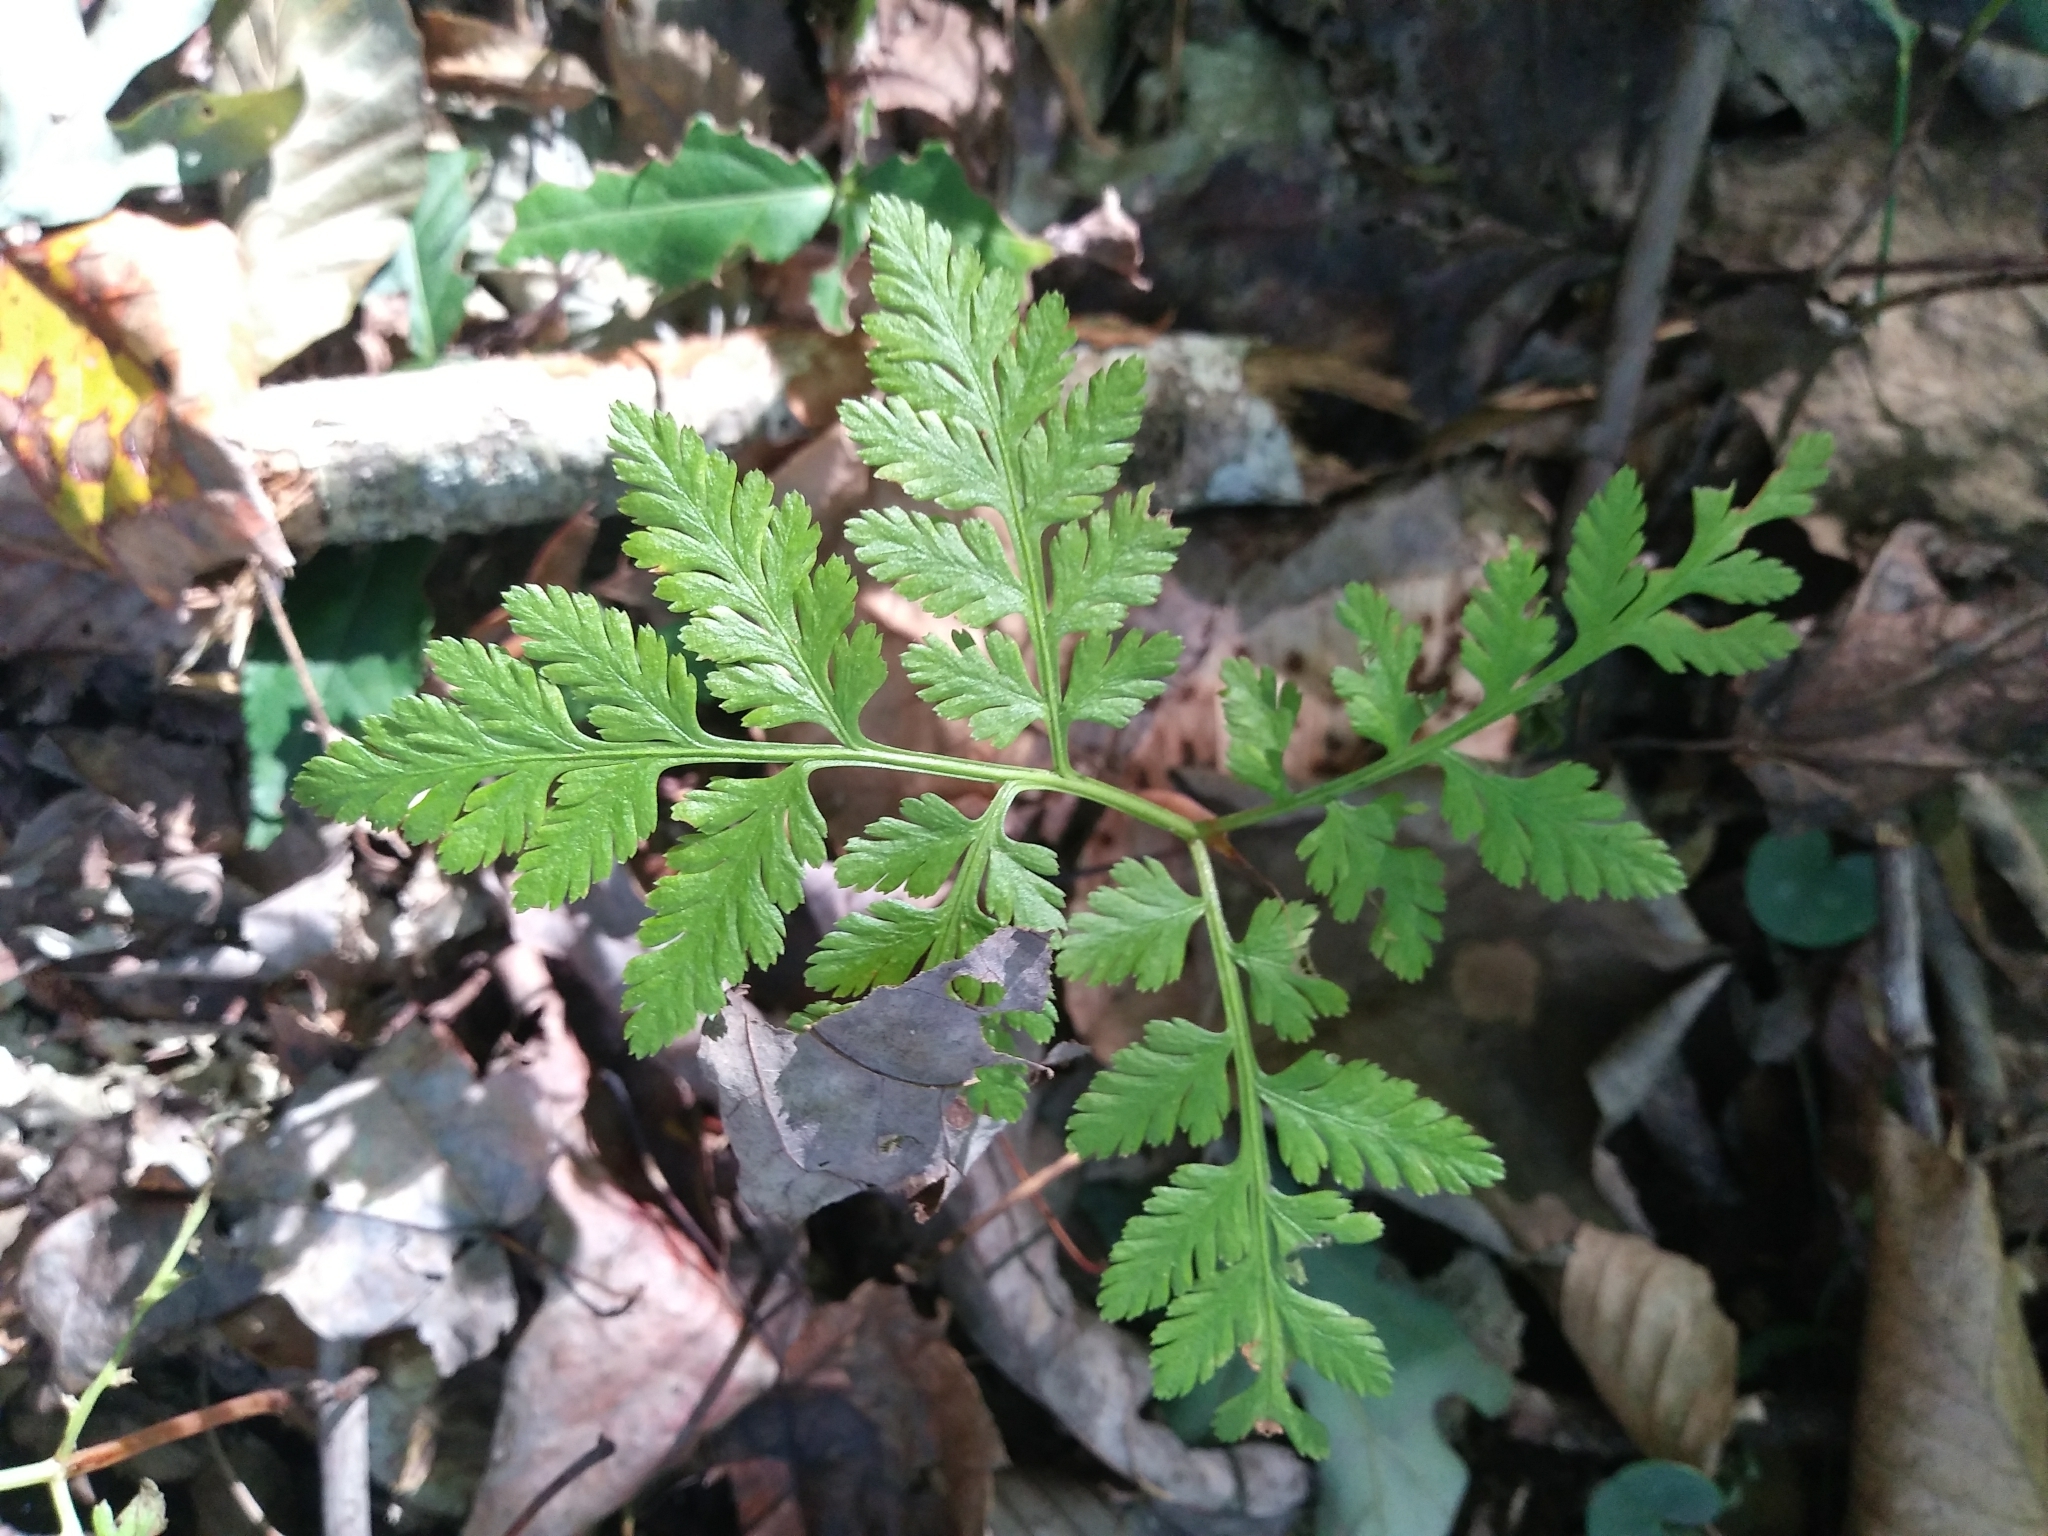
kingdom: Plantae
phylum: Tracheophyta
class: Polypodiopsida
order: Ophioglossales
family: Ophioglossaceae
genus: Botrypus
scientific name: Botrypus virginianus
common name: Common grapefern
